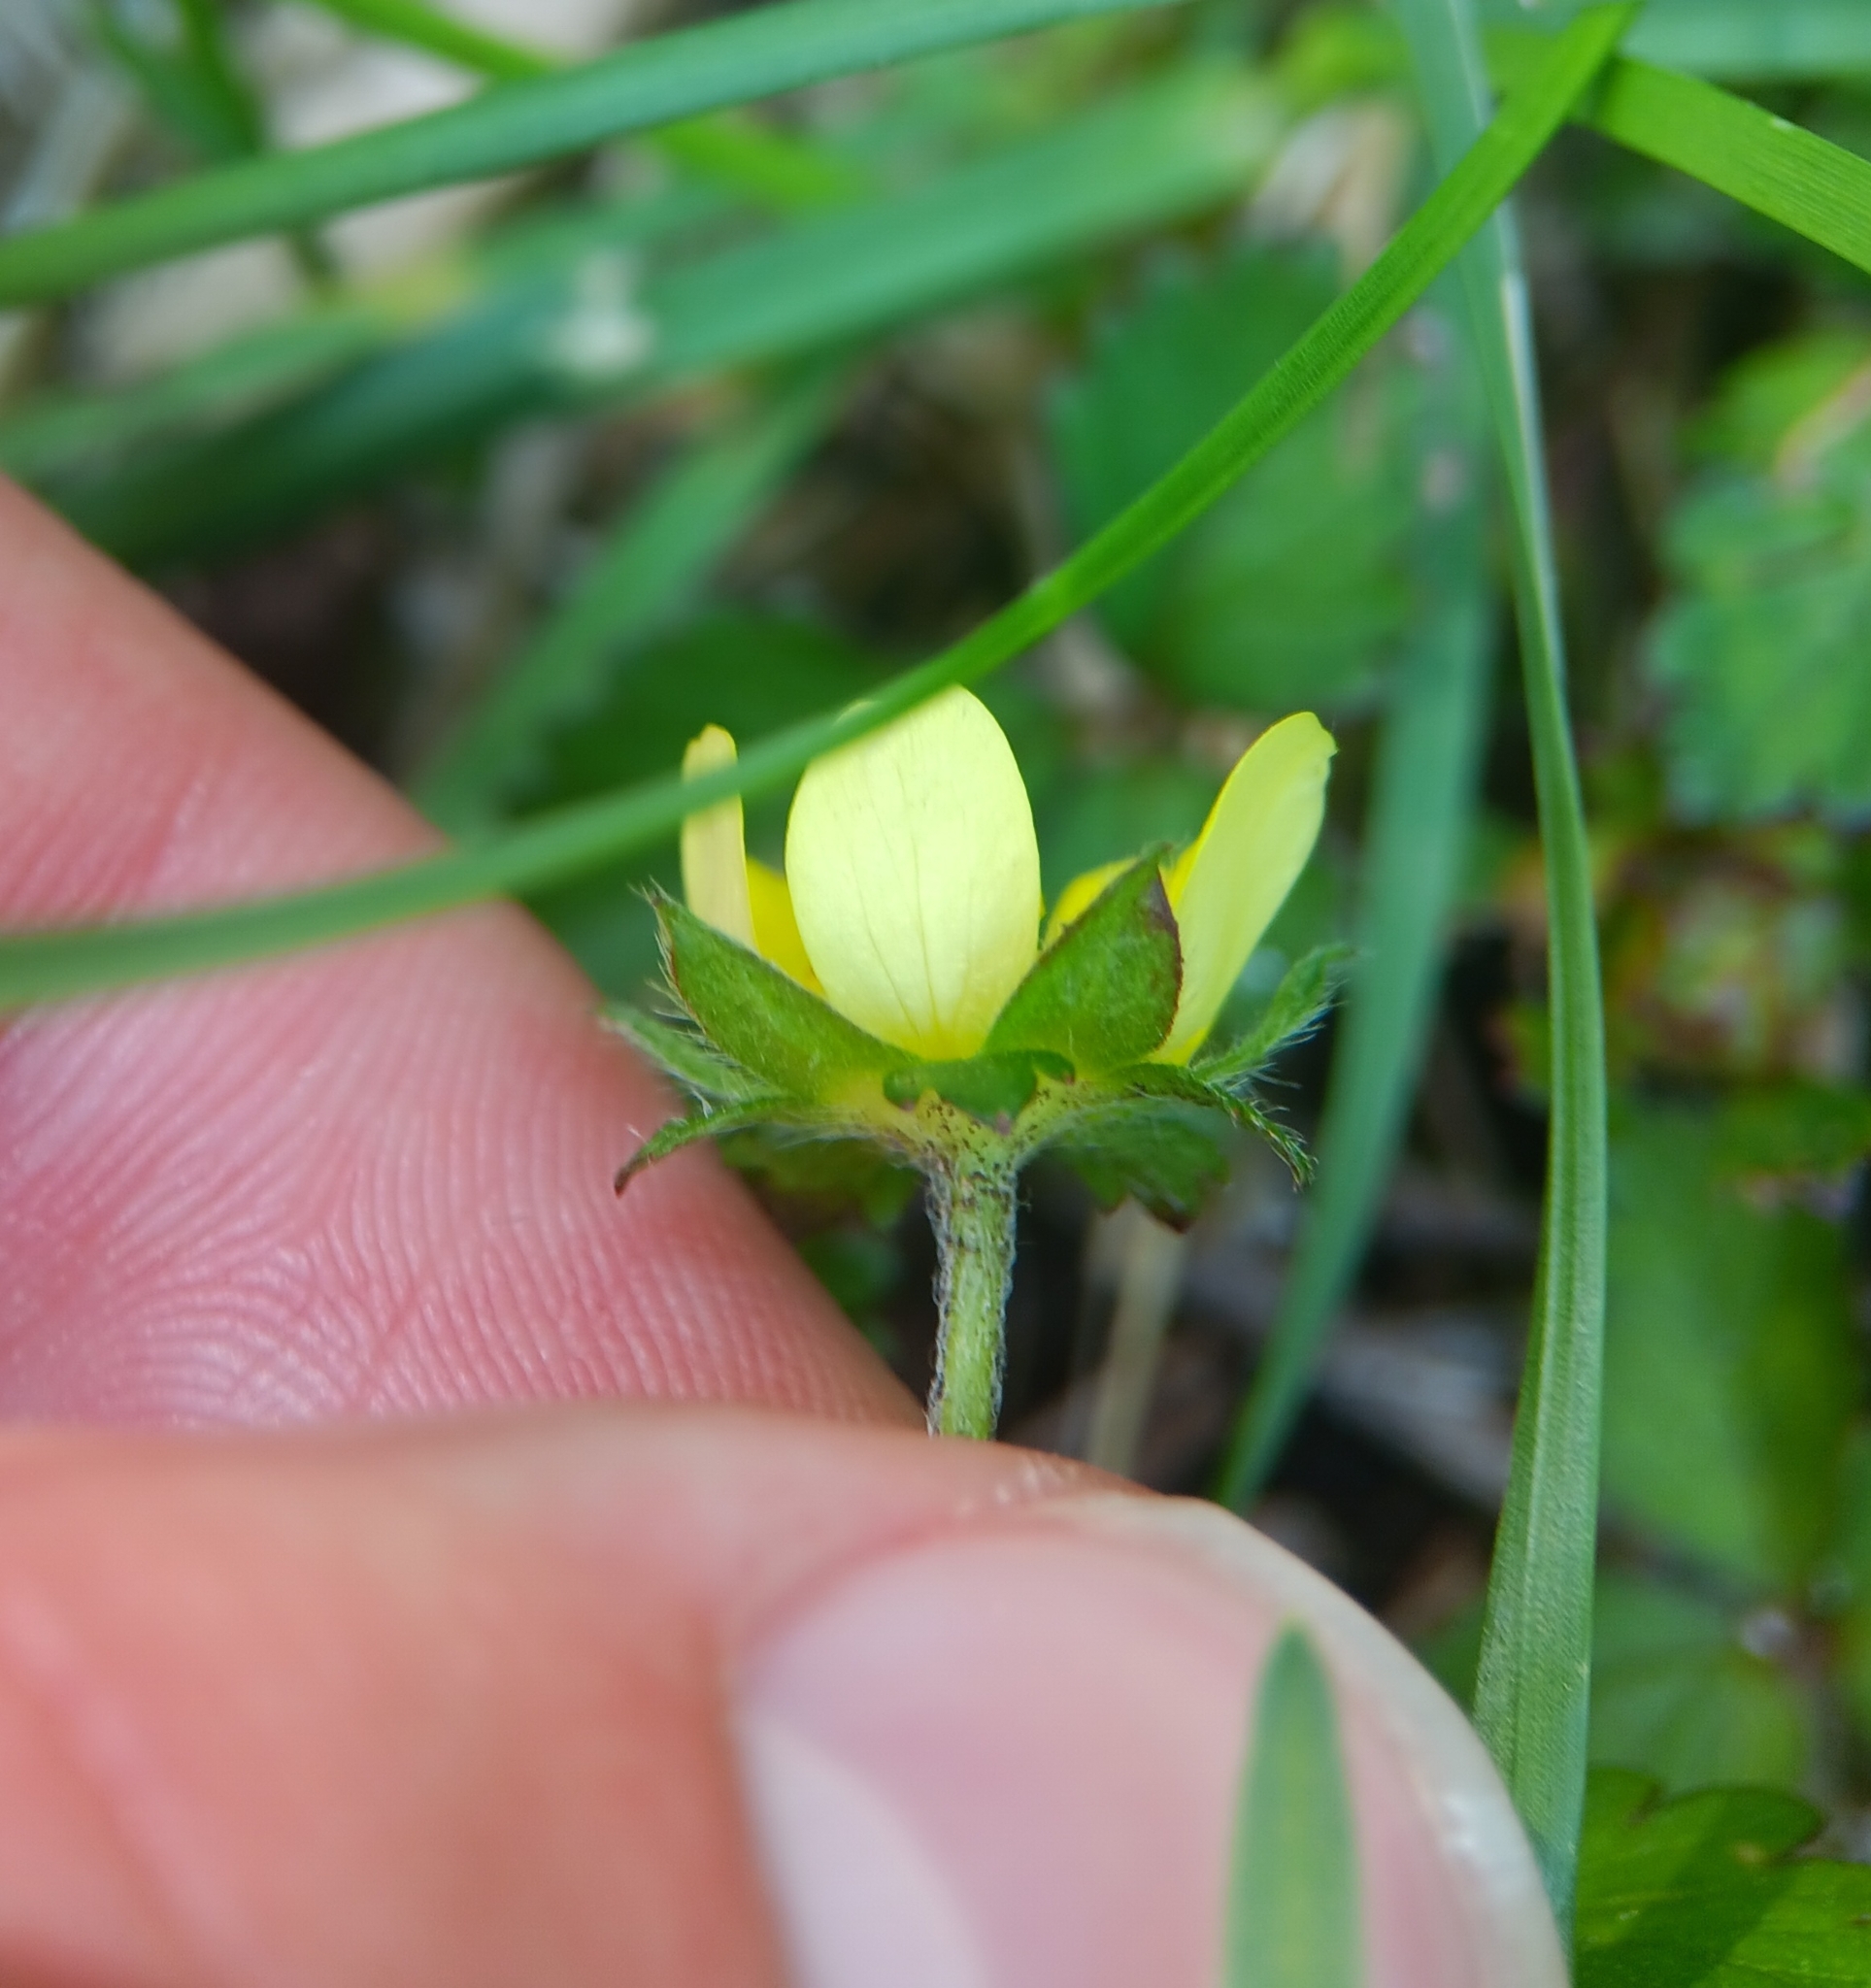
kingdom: Plantae
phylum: Tracheophyta
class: Magnoliopsida
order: Rosales
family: Rosaceae
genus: Potentilla
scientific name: Potentilla indica
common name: Yellow-flowered strawberry
